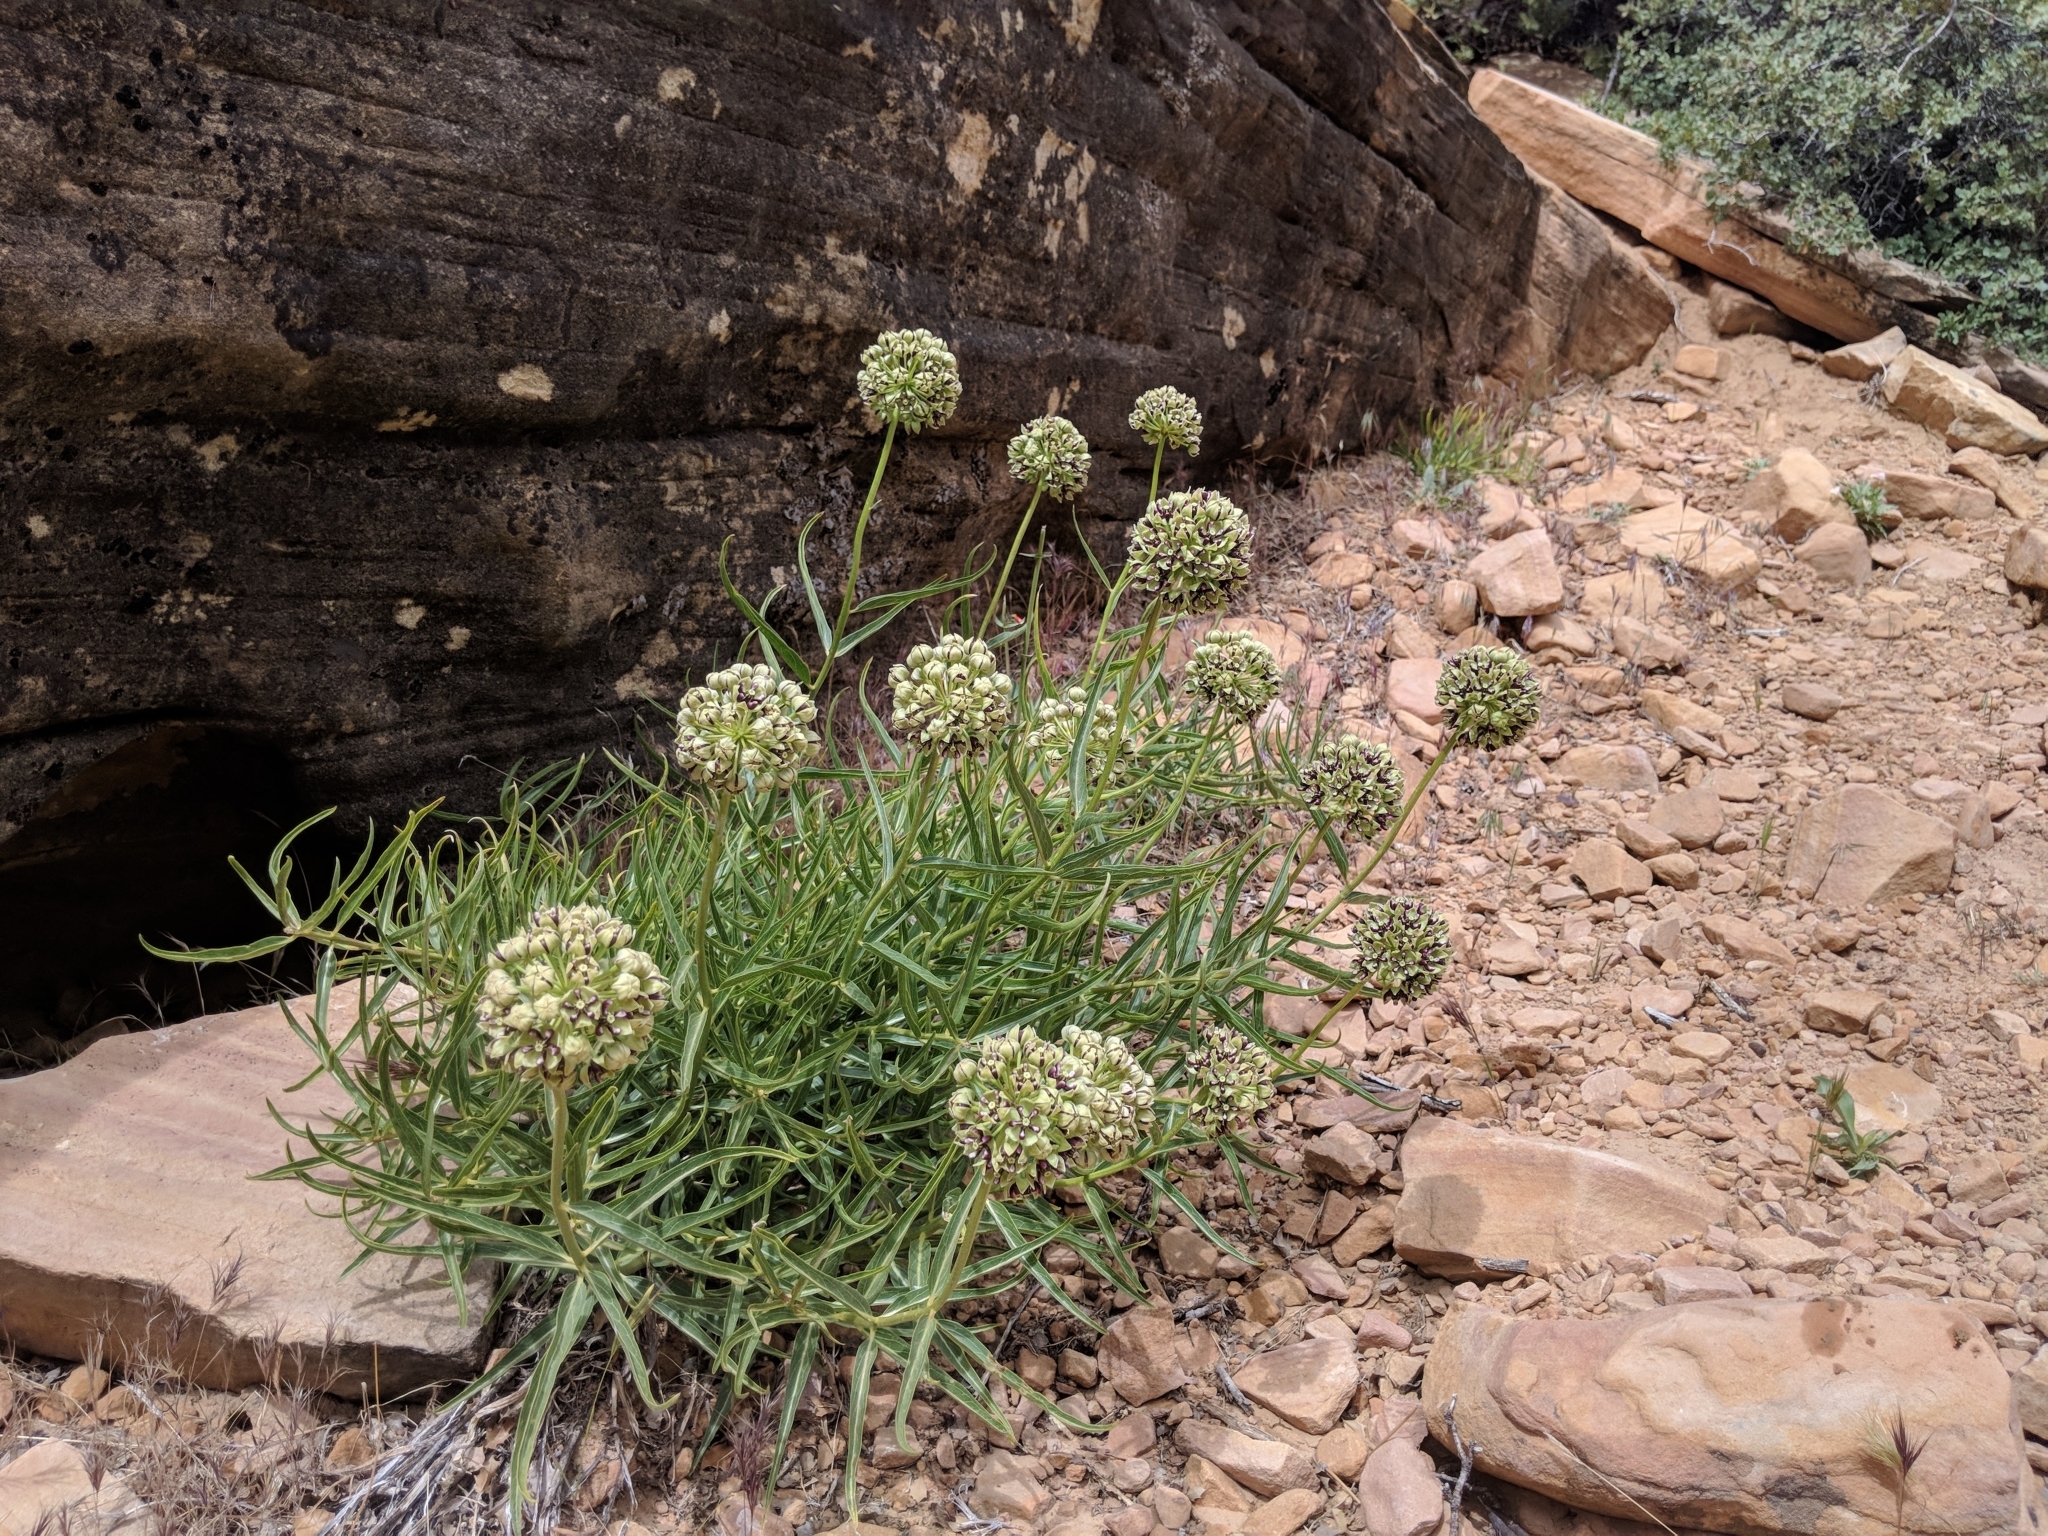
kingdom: Plantae
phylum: Tracheophyta
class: Magnoliopsida
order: Gentianales
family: Apocynaceae
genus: Asclepias
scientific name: Asclepias asperula
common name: Antelope horns
